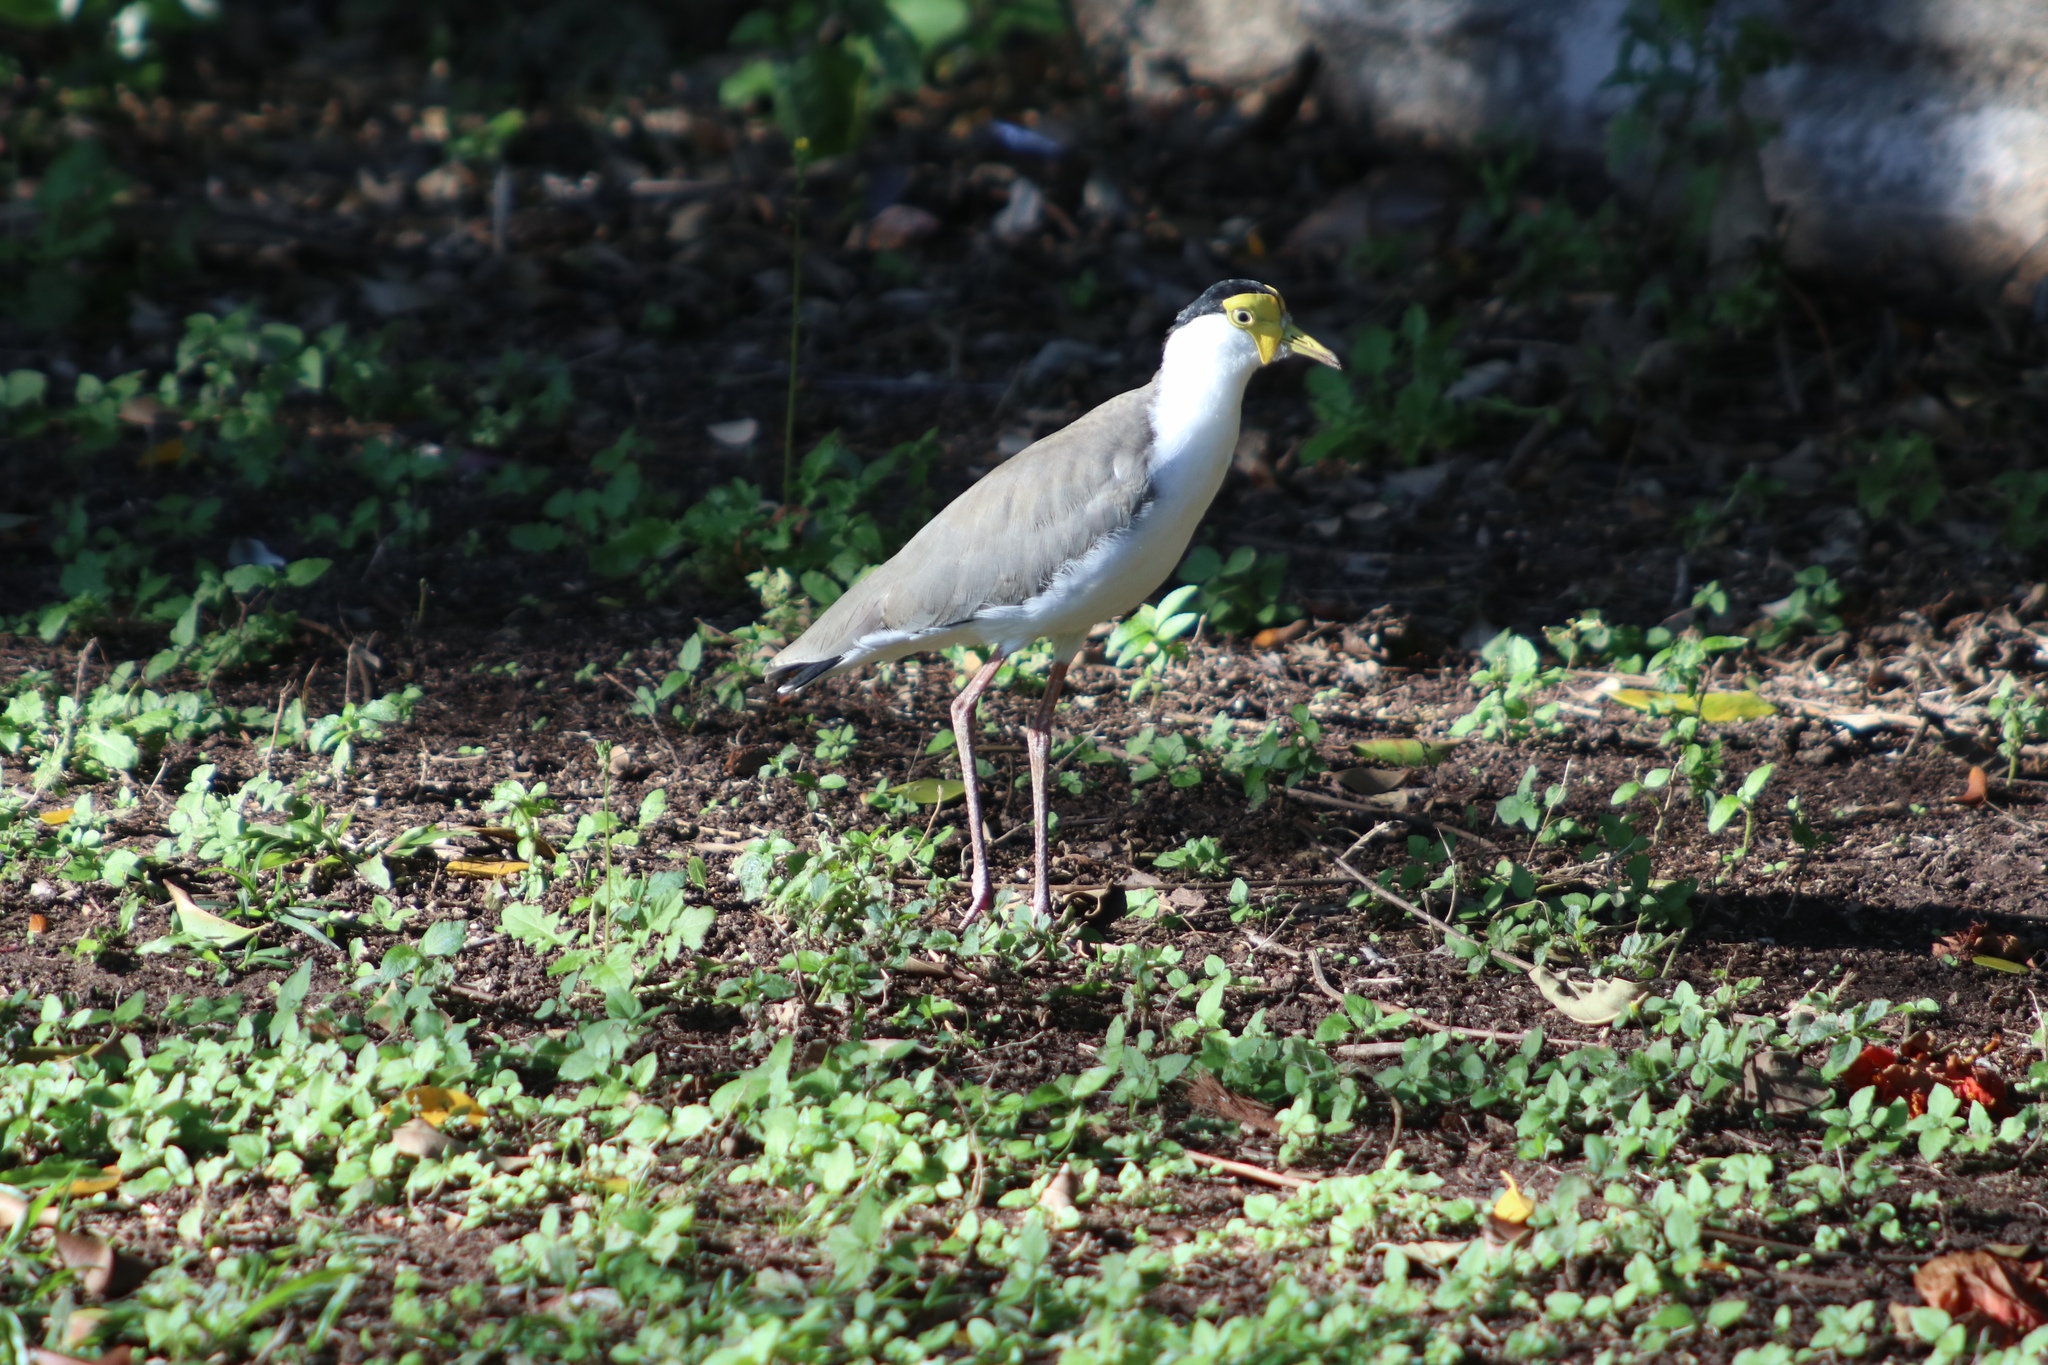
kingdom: Animalia
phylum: Chordata
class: Aves
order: Charadriiformes
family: Charadriidae
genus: Vanellus
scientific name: Vanellus miles
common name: Masked lapwing
